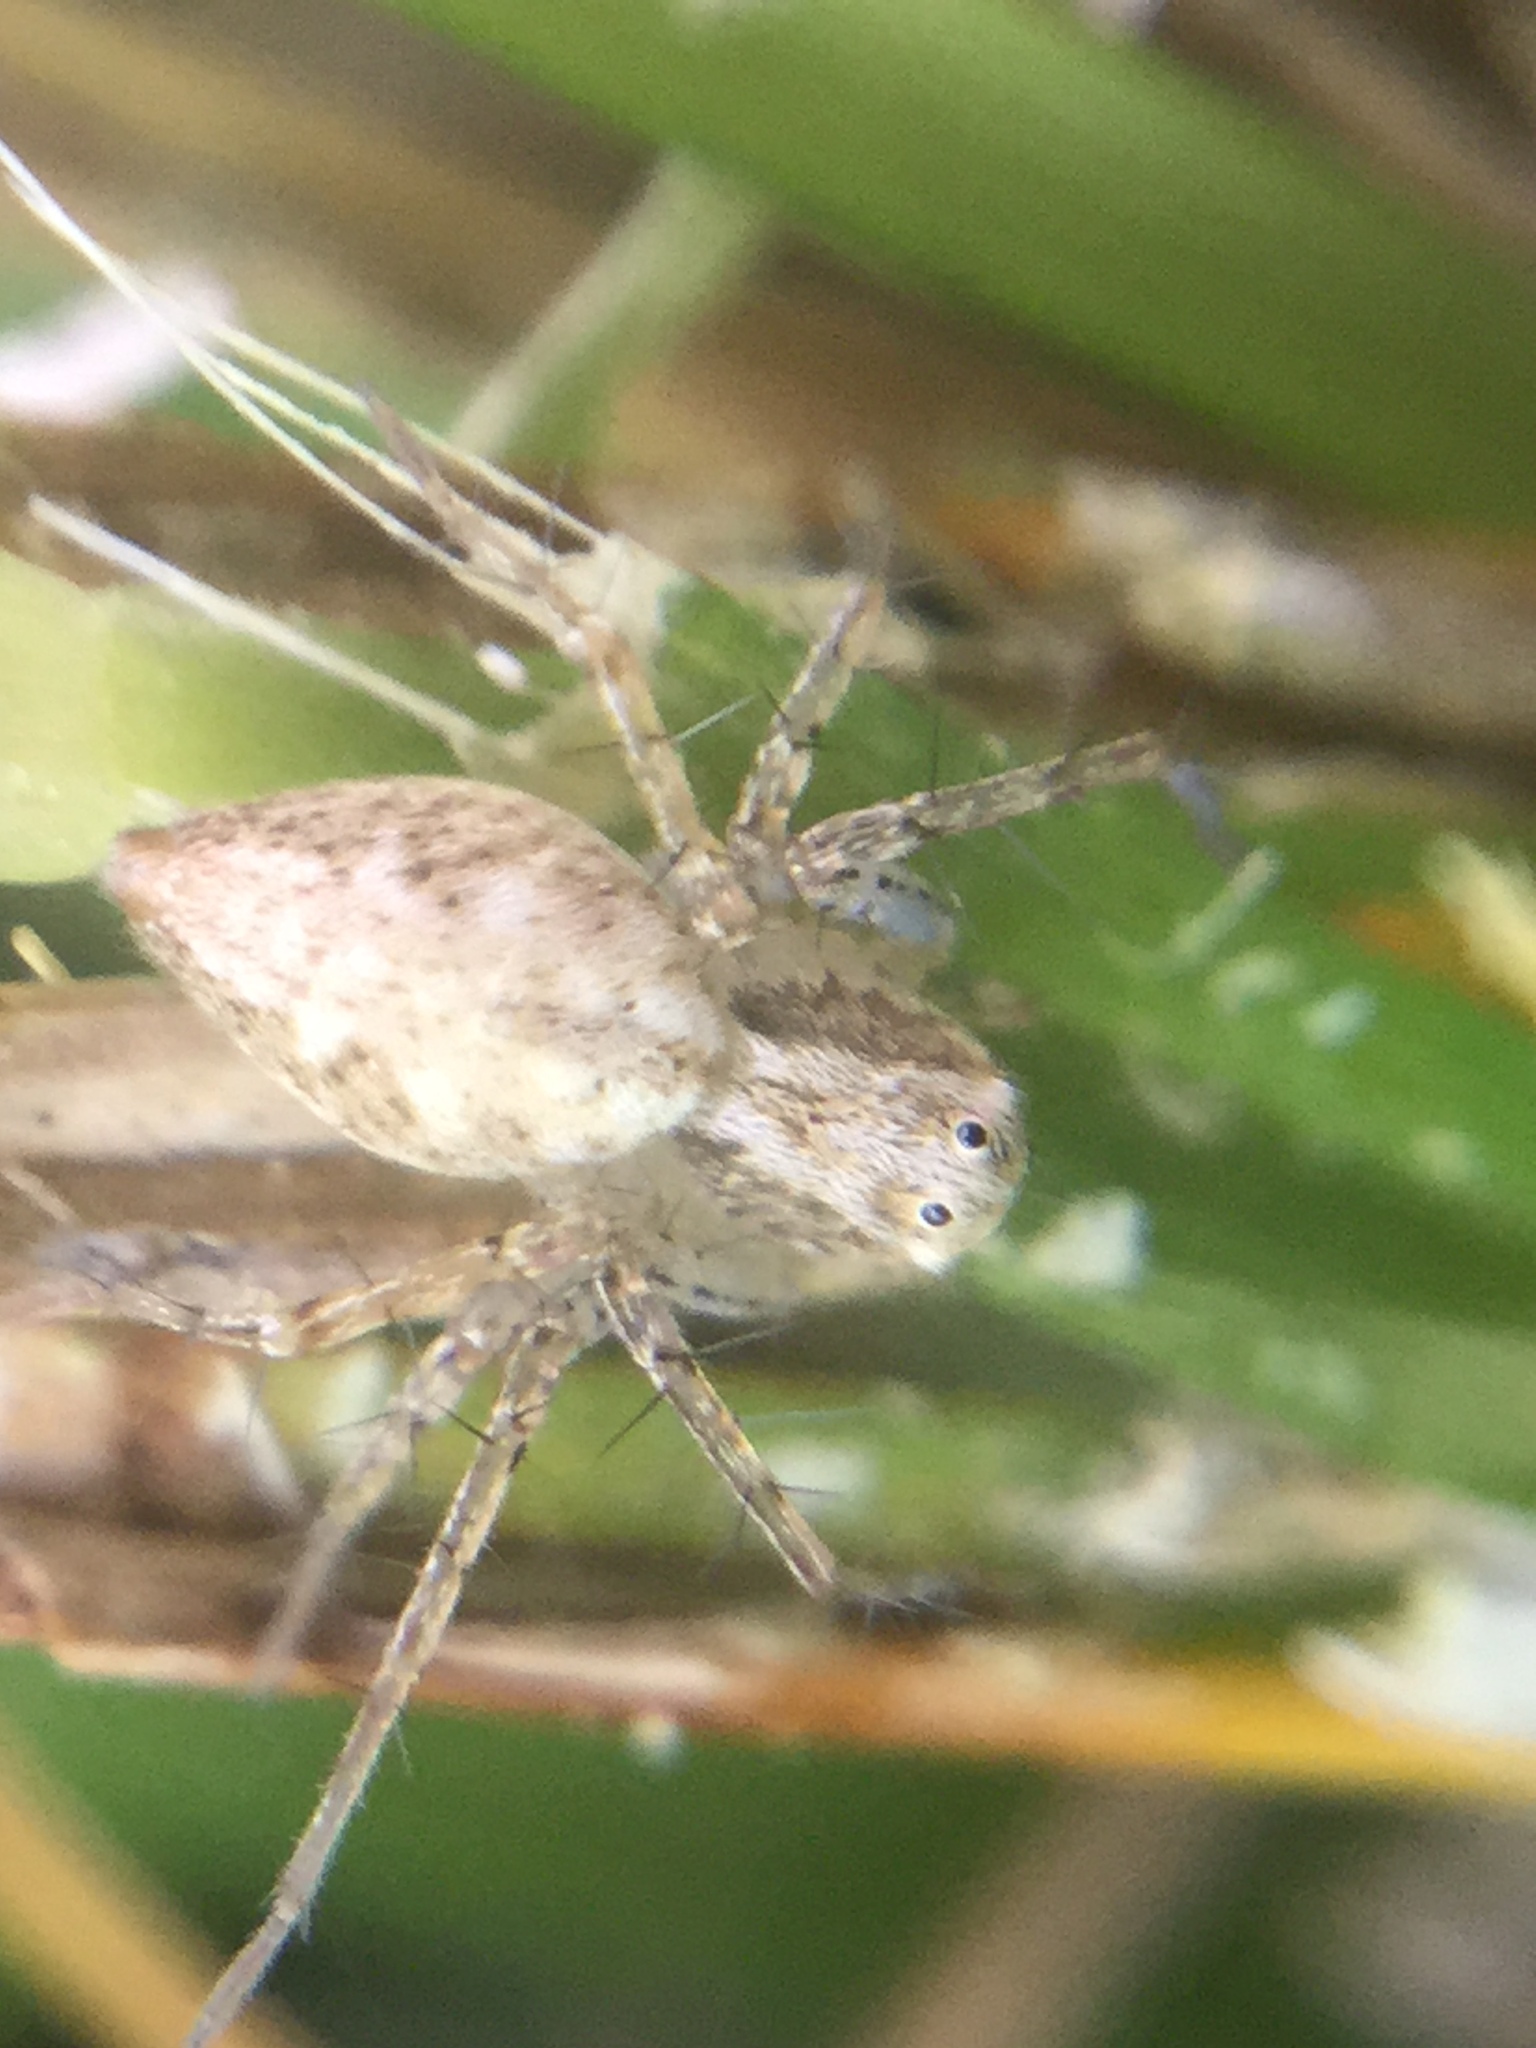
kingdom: Animalia
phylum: Arthropoda
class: Arachnida
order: Araneae
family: Oxyopidae
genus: Oxyopes
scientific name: Oxyopes aglossus
